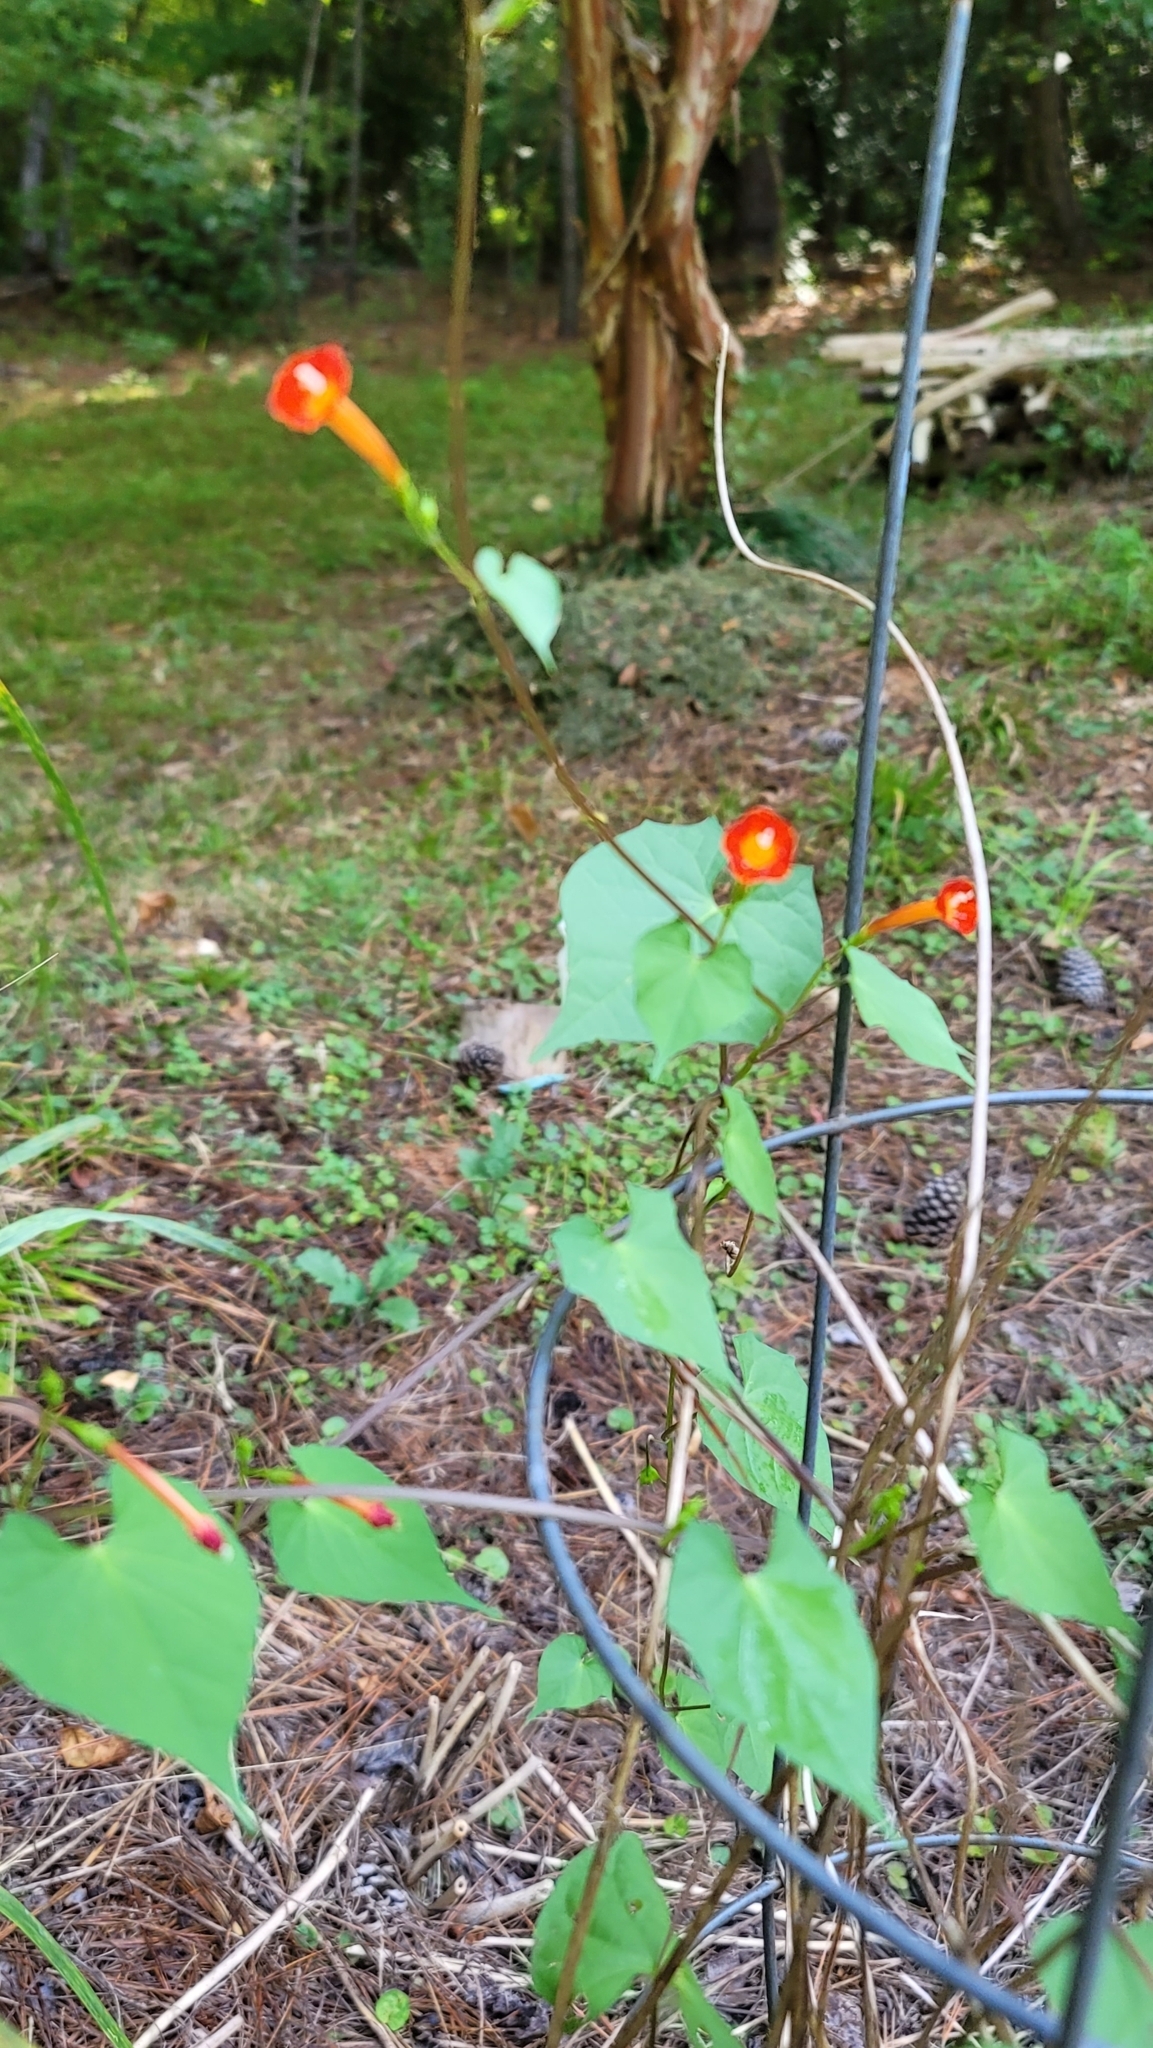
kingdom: Plantae
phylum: Tracheophyta
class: Magnoliopsida
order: Solanales
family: Convolvulaceae
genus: Ipomoea
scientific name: Ipomoea coccinea
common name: Red morning-glory
